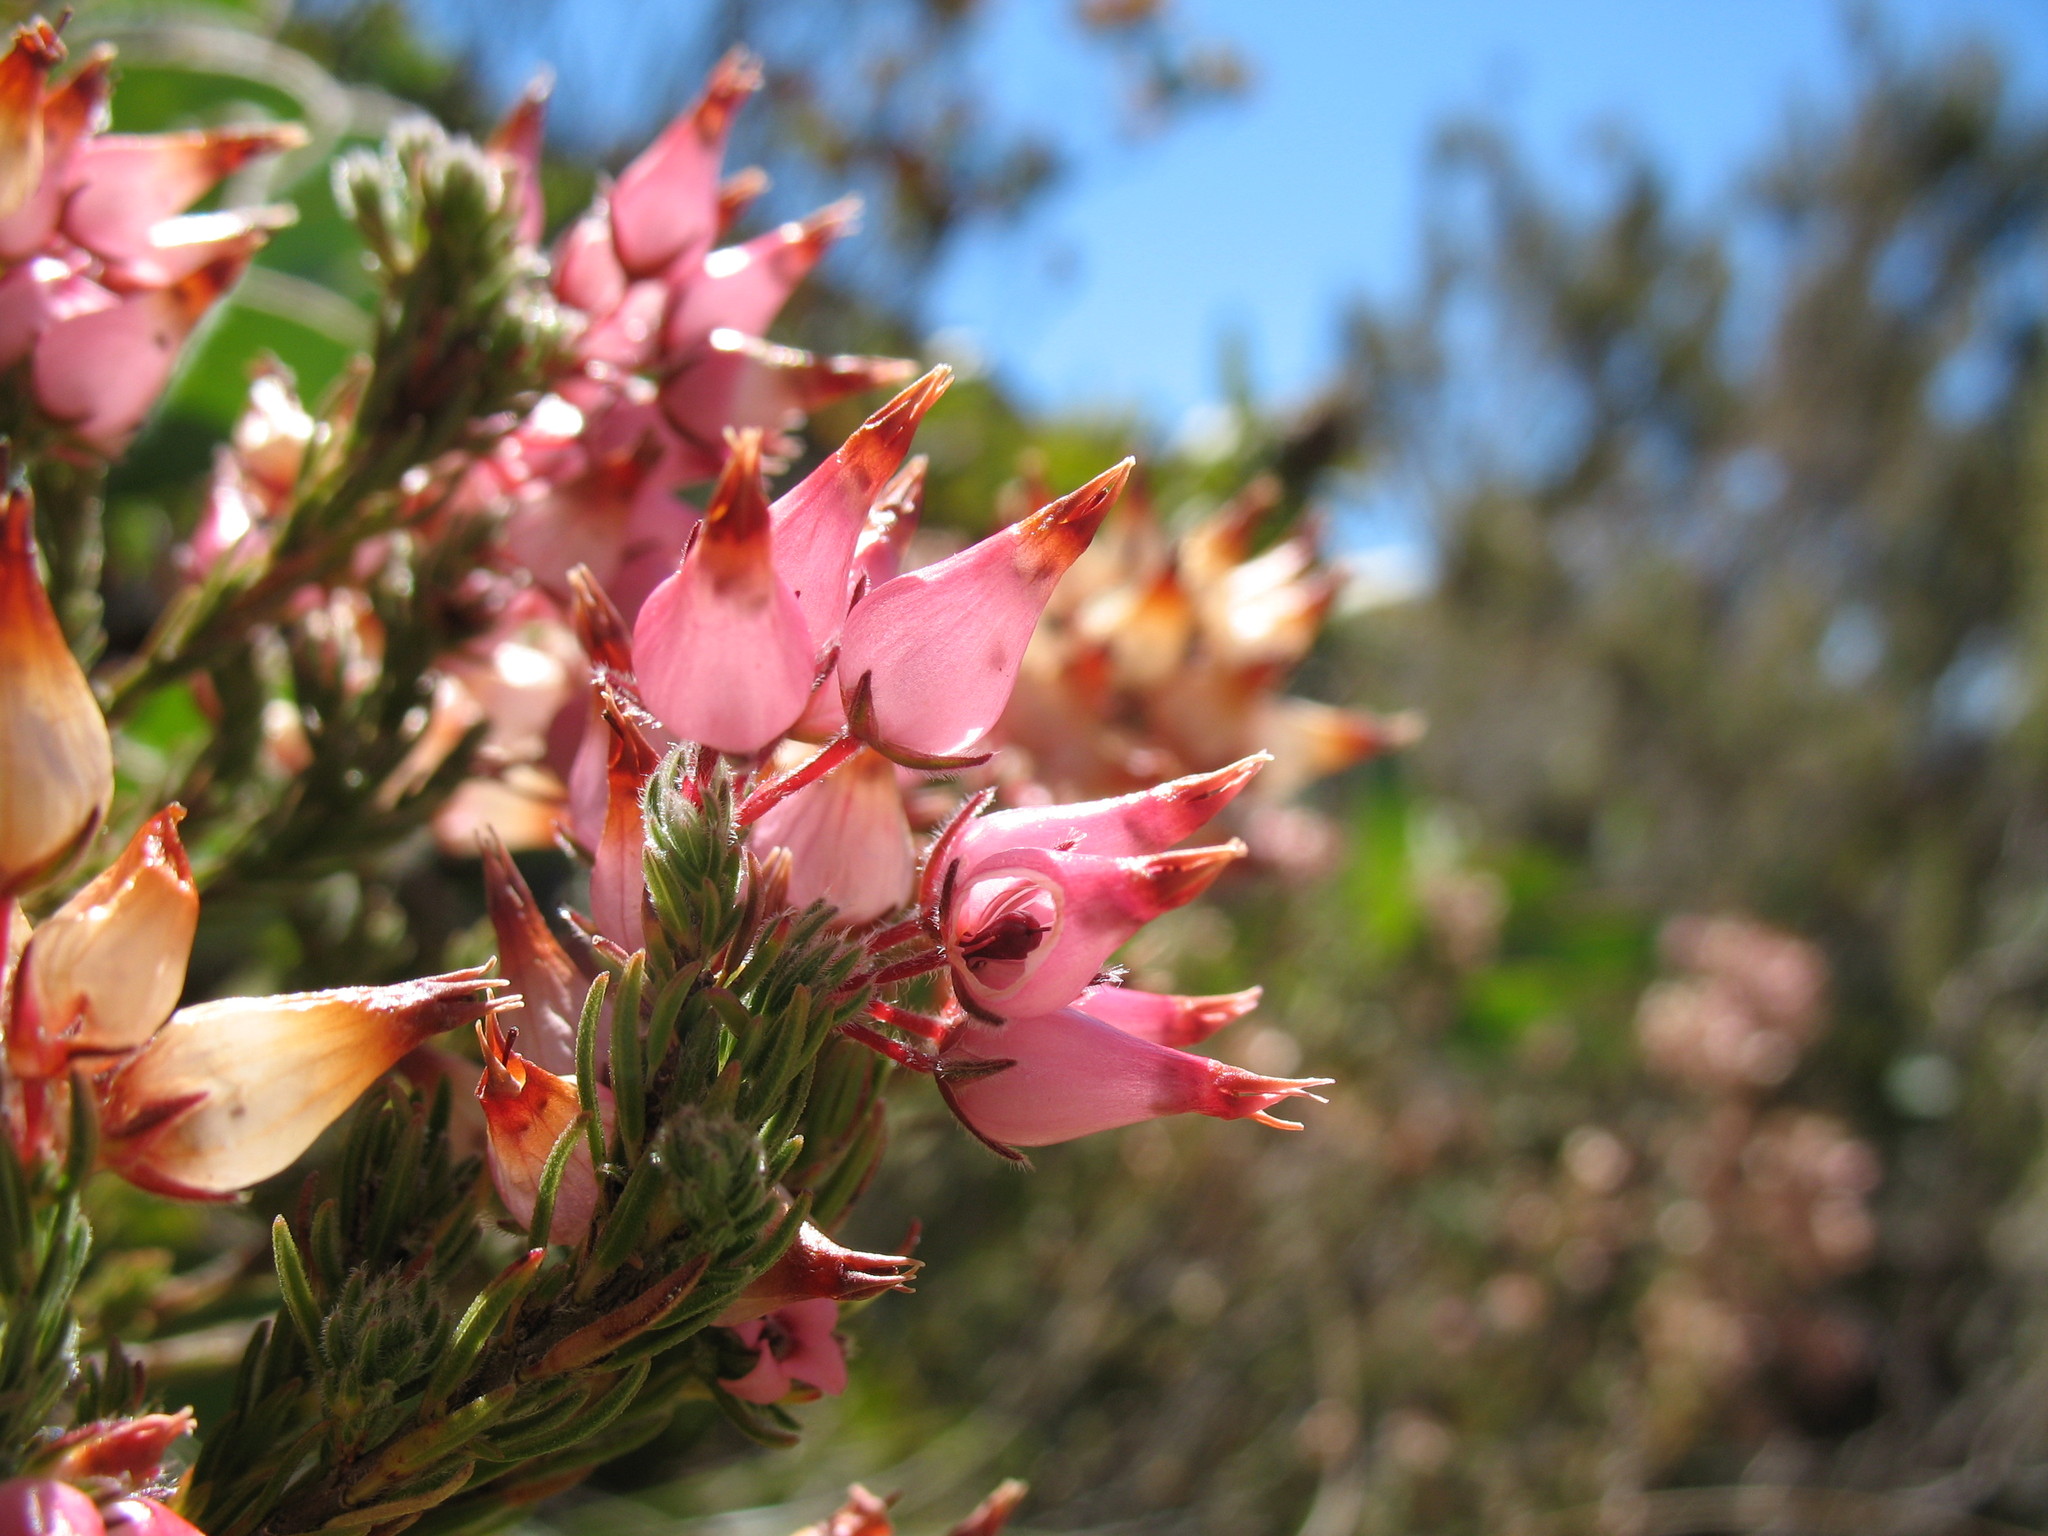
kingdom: Plantae
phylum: Tracheophyta
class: Magnoliopsida
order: Ericales
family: Ericaceae
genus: Erica
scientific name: Erica
